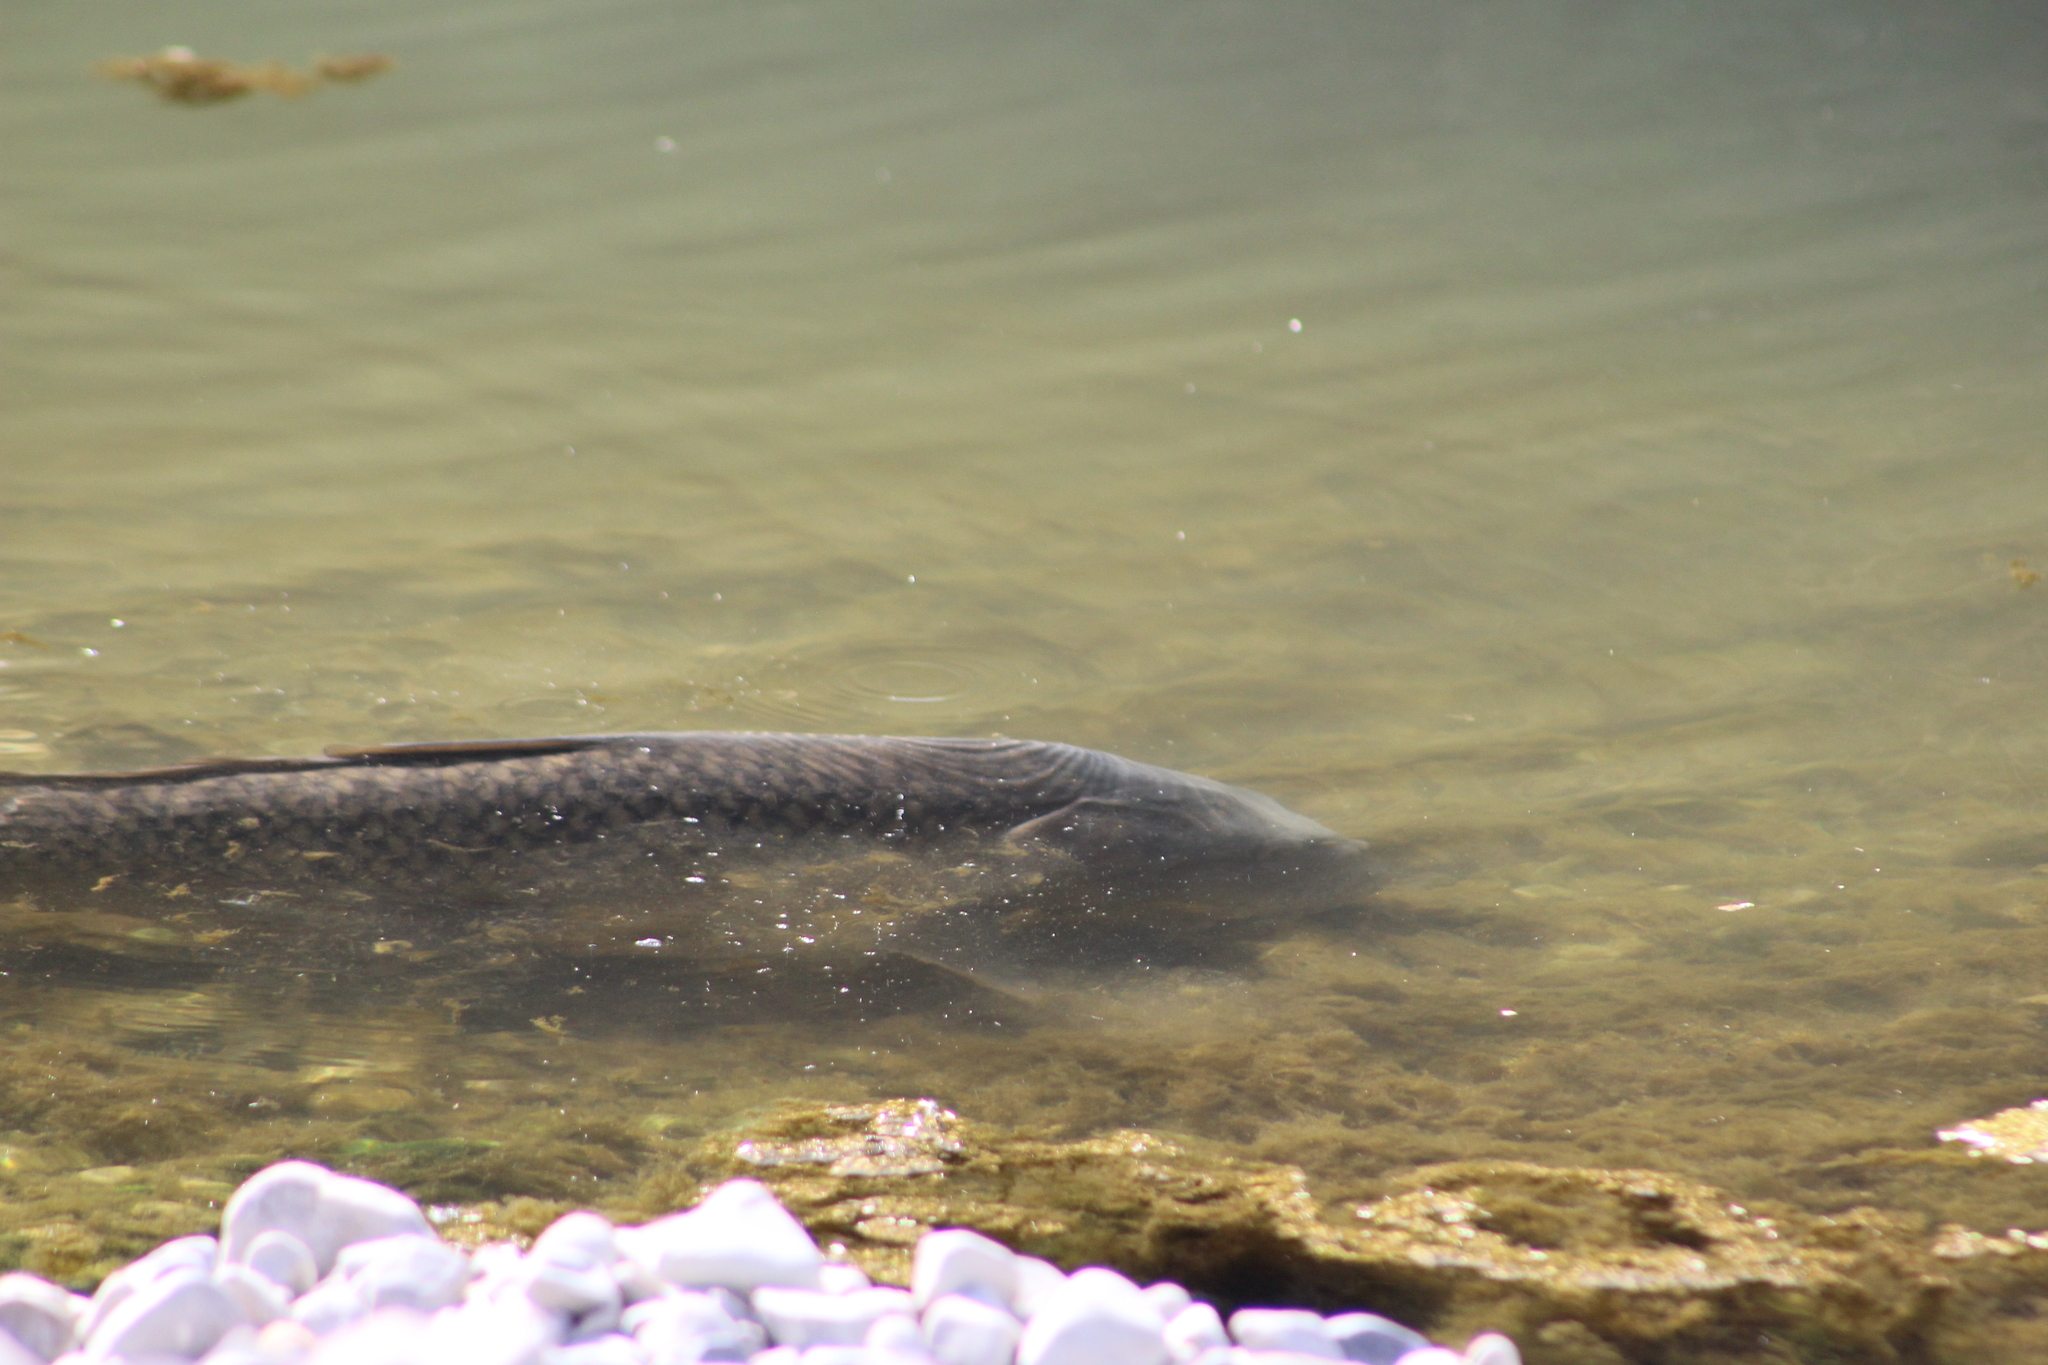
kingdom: Animalia
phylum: Chordata
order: Cypriniformes
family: Cyprinidae
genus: Cyprinus
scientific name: Cyprinus carpio
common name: Common carp
